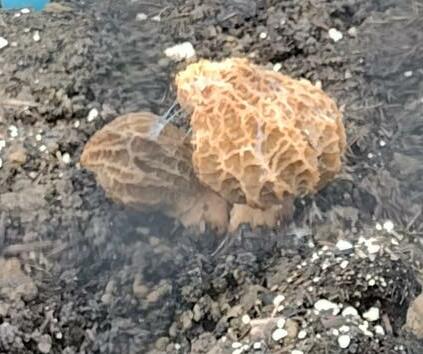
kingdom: Fungi
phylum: Ascomycota
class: Pezizomycetes
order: Pezizales
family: Morchellaceae
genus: Morchella
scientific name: Morchella
